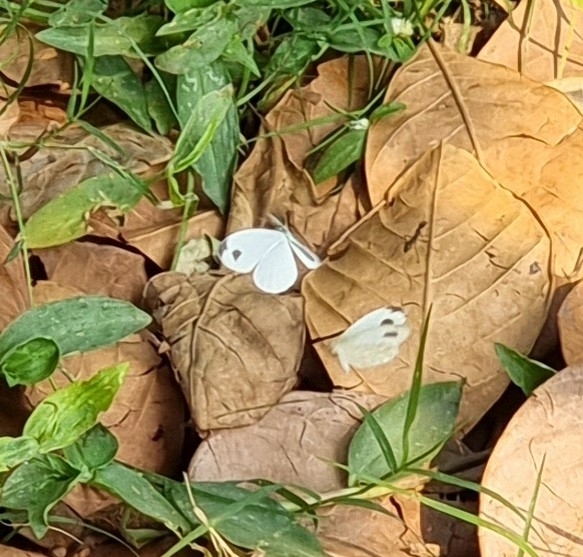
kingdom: Animalia
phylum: Arthropoda
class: Insecta
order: Lepidoptera
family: Pieridae
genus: Leptosia
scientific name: Leptosia nina
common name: Psyche
